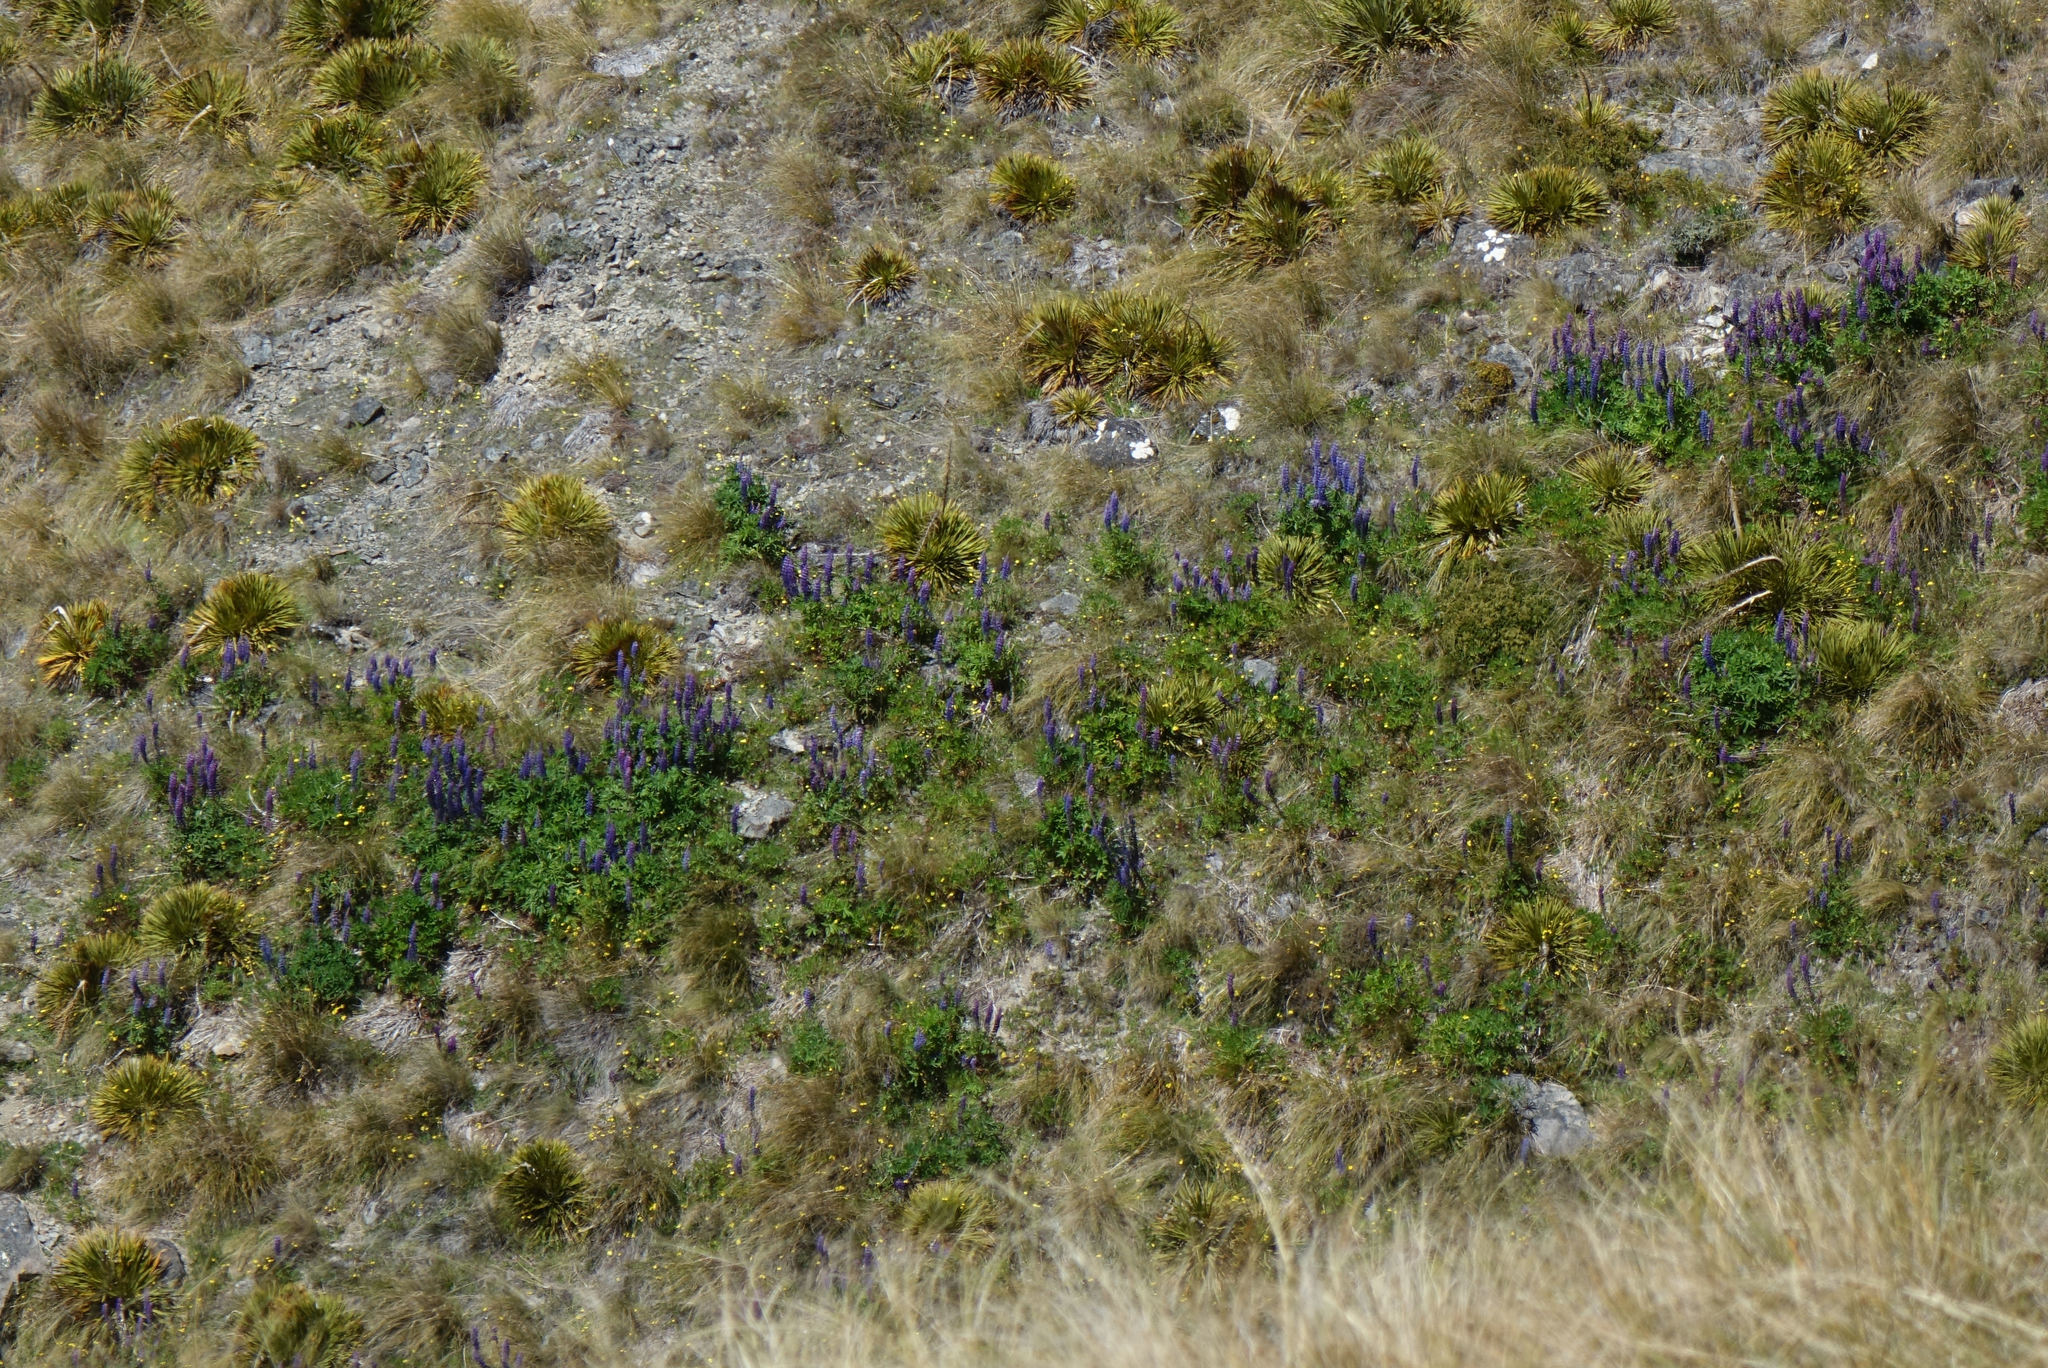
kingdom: Plantae
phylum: Tracheophyta
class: Magnoliopsida
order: Fabales
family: Fabaceae
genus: Lupinus
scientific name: Lupinus polyphyllus
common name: Garden lupin
